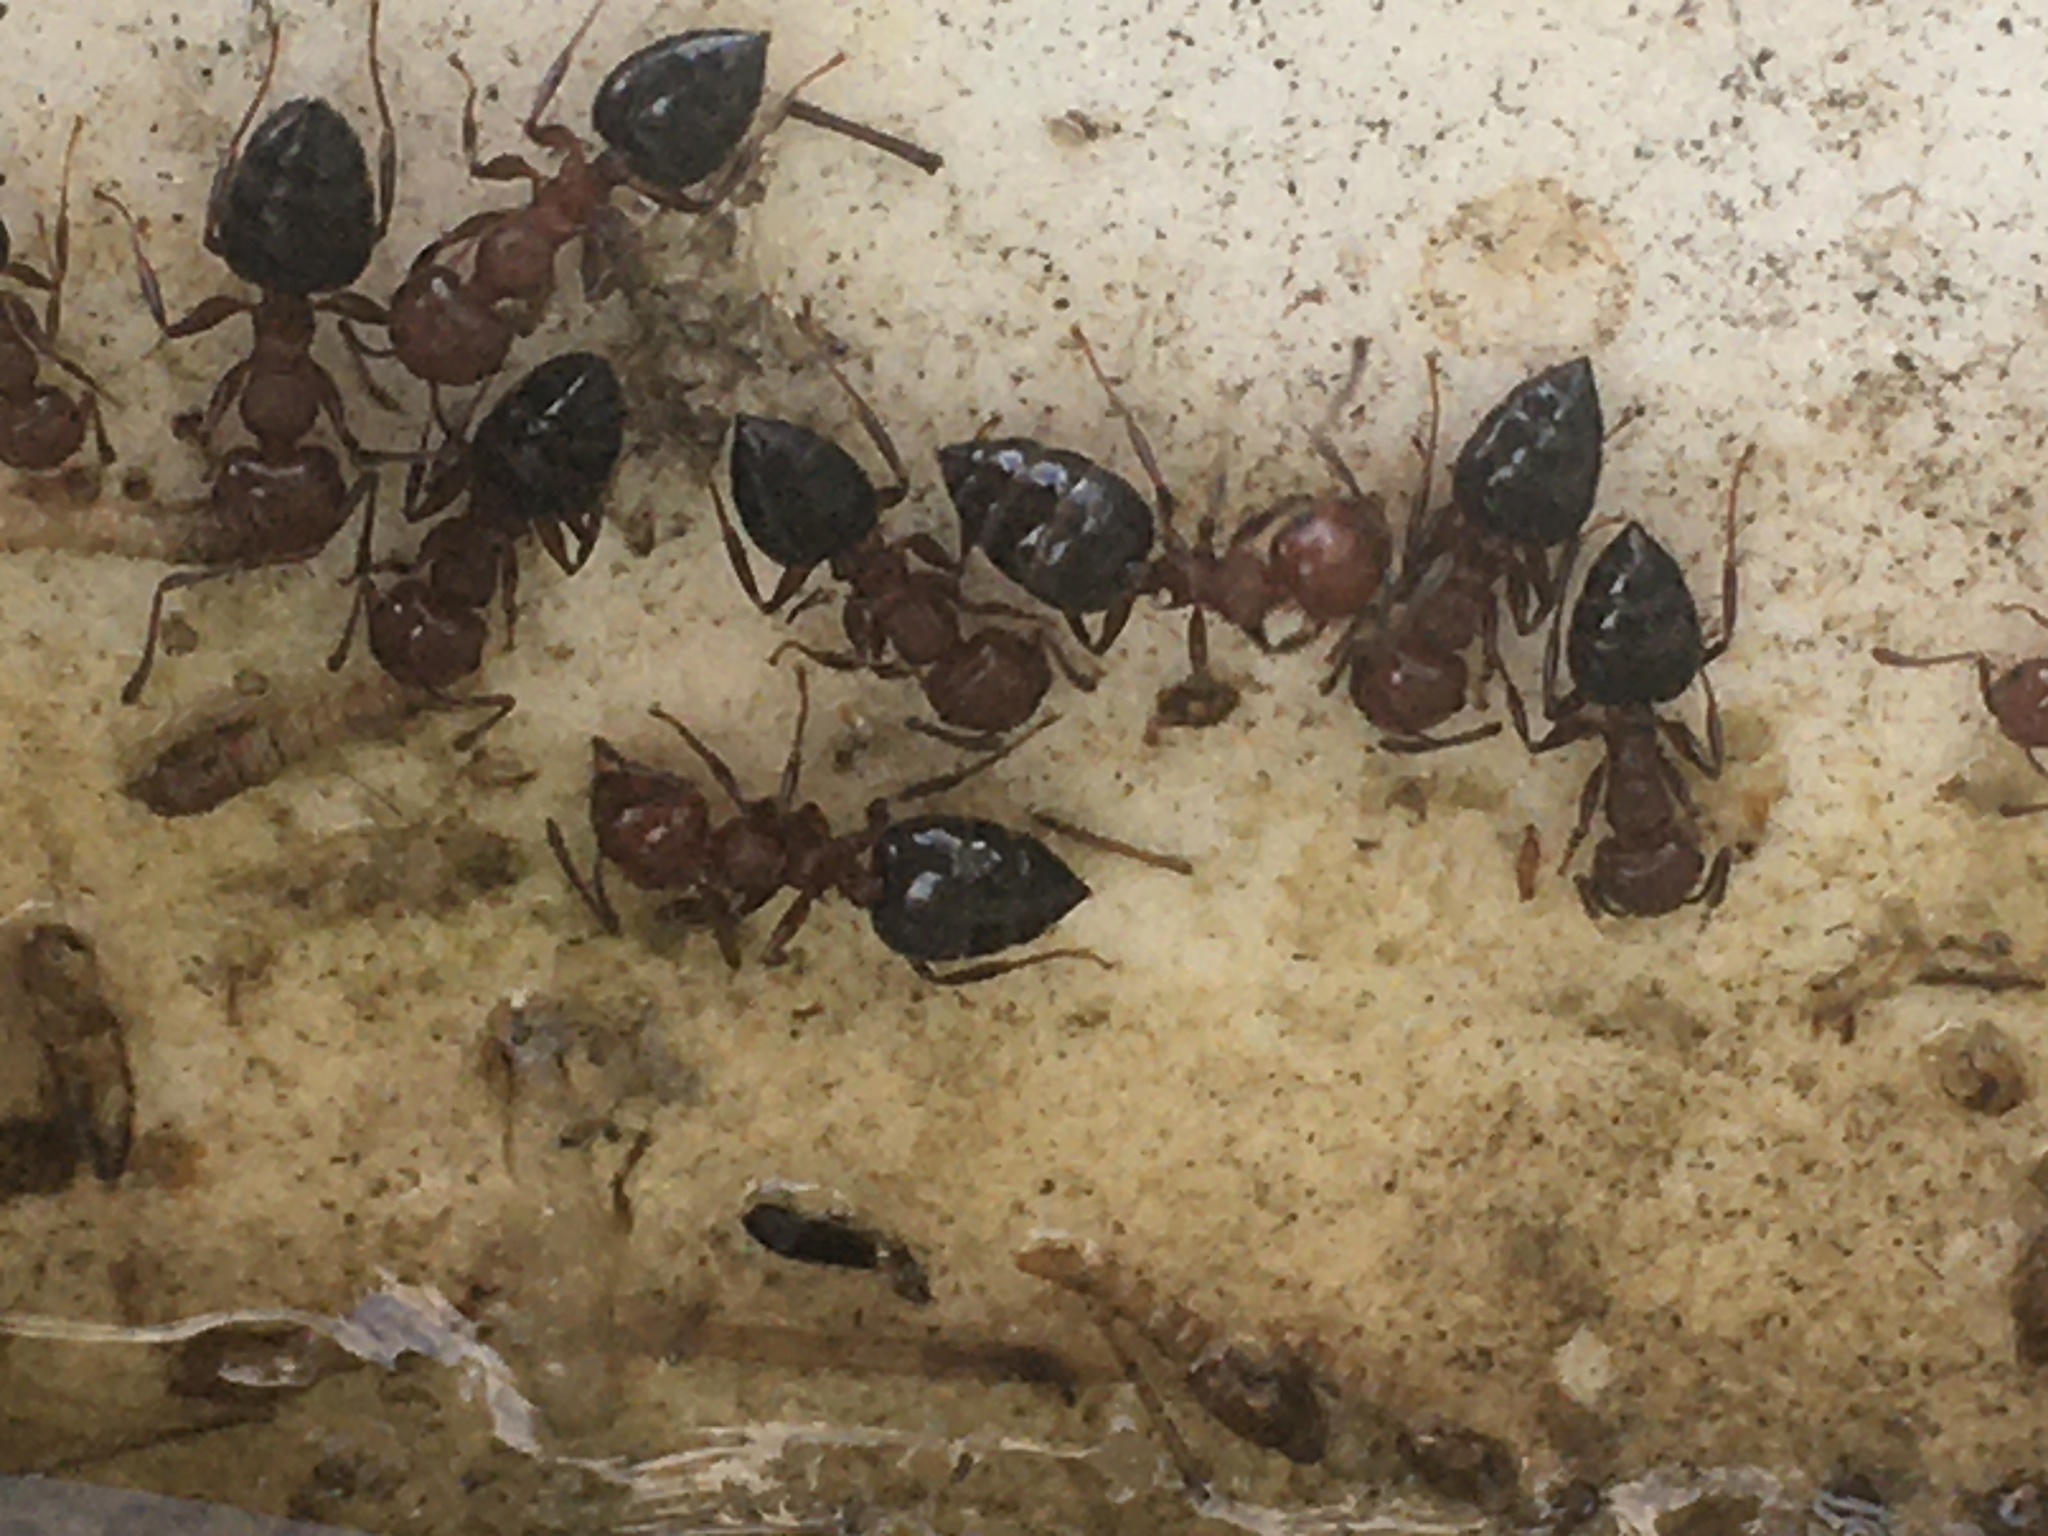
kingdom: Animalia
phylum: Arthropoda
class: Insecta
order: Hymenoptera
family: Formicidae
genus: Crematogaster
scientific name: Crematogaster schmidti
